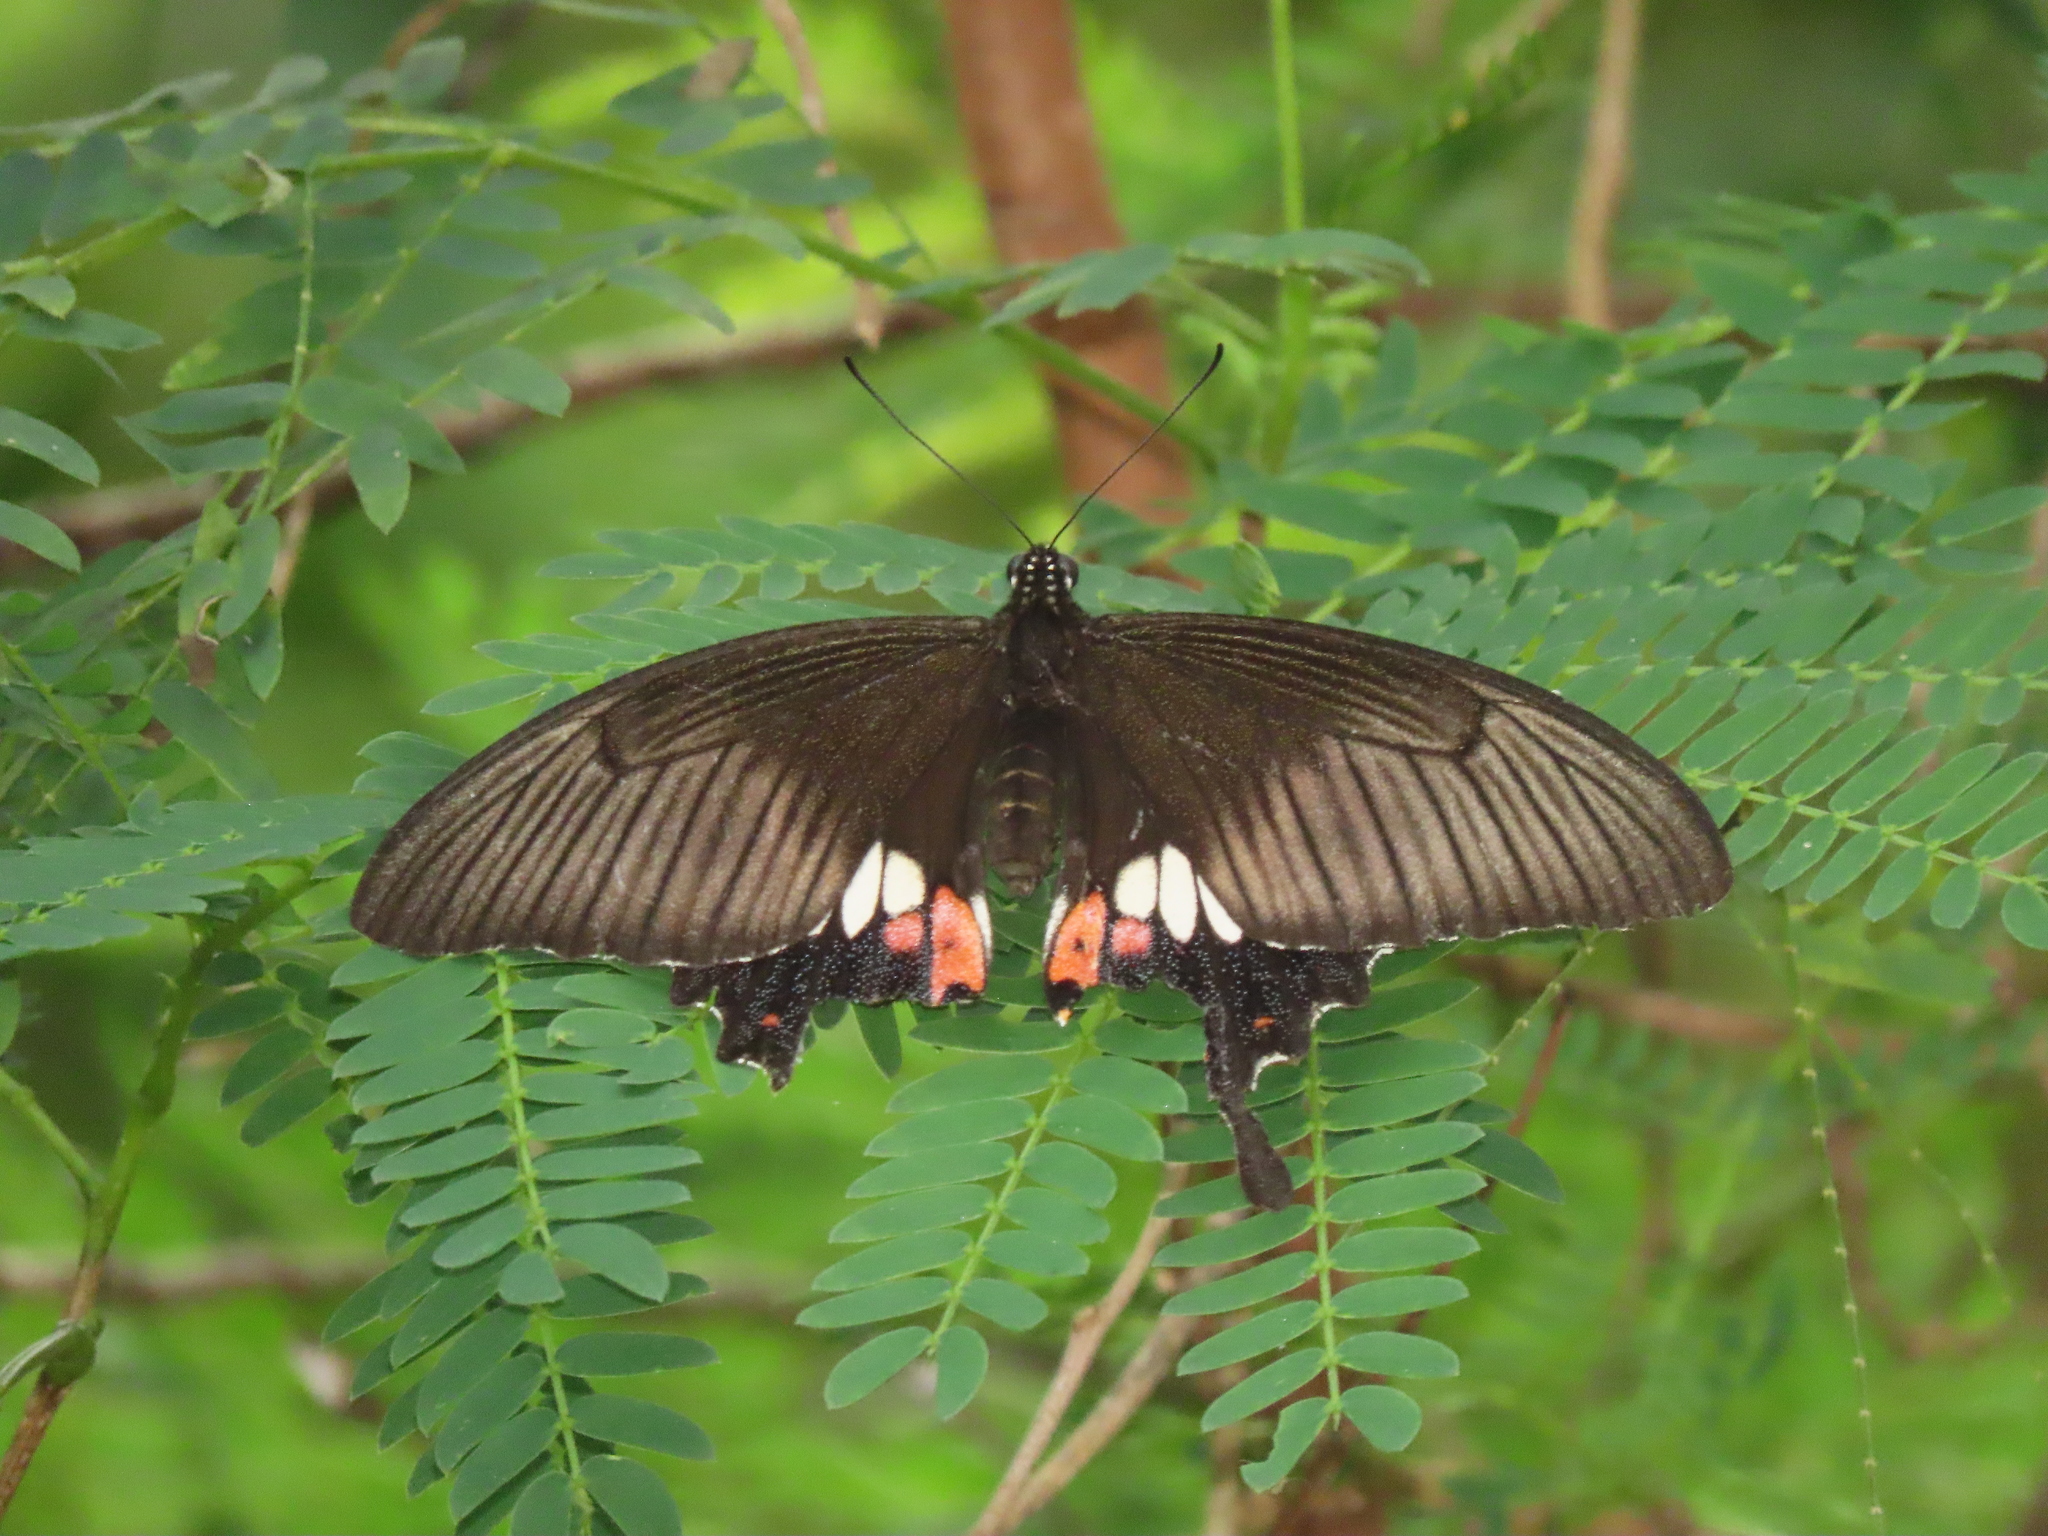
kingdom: Animalia
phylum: Arthropoda
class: Insecta
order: Lepidoptera
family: Papilionidae
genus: Papilio
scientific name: Papilio polytes
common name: Common mormon
